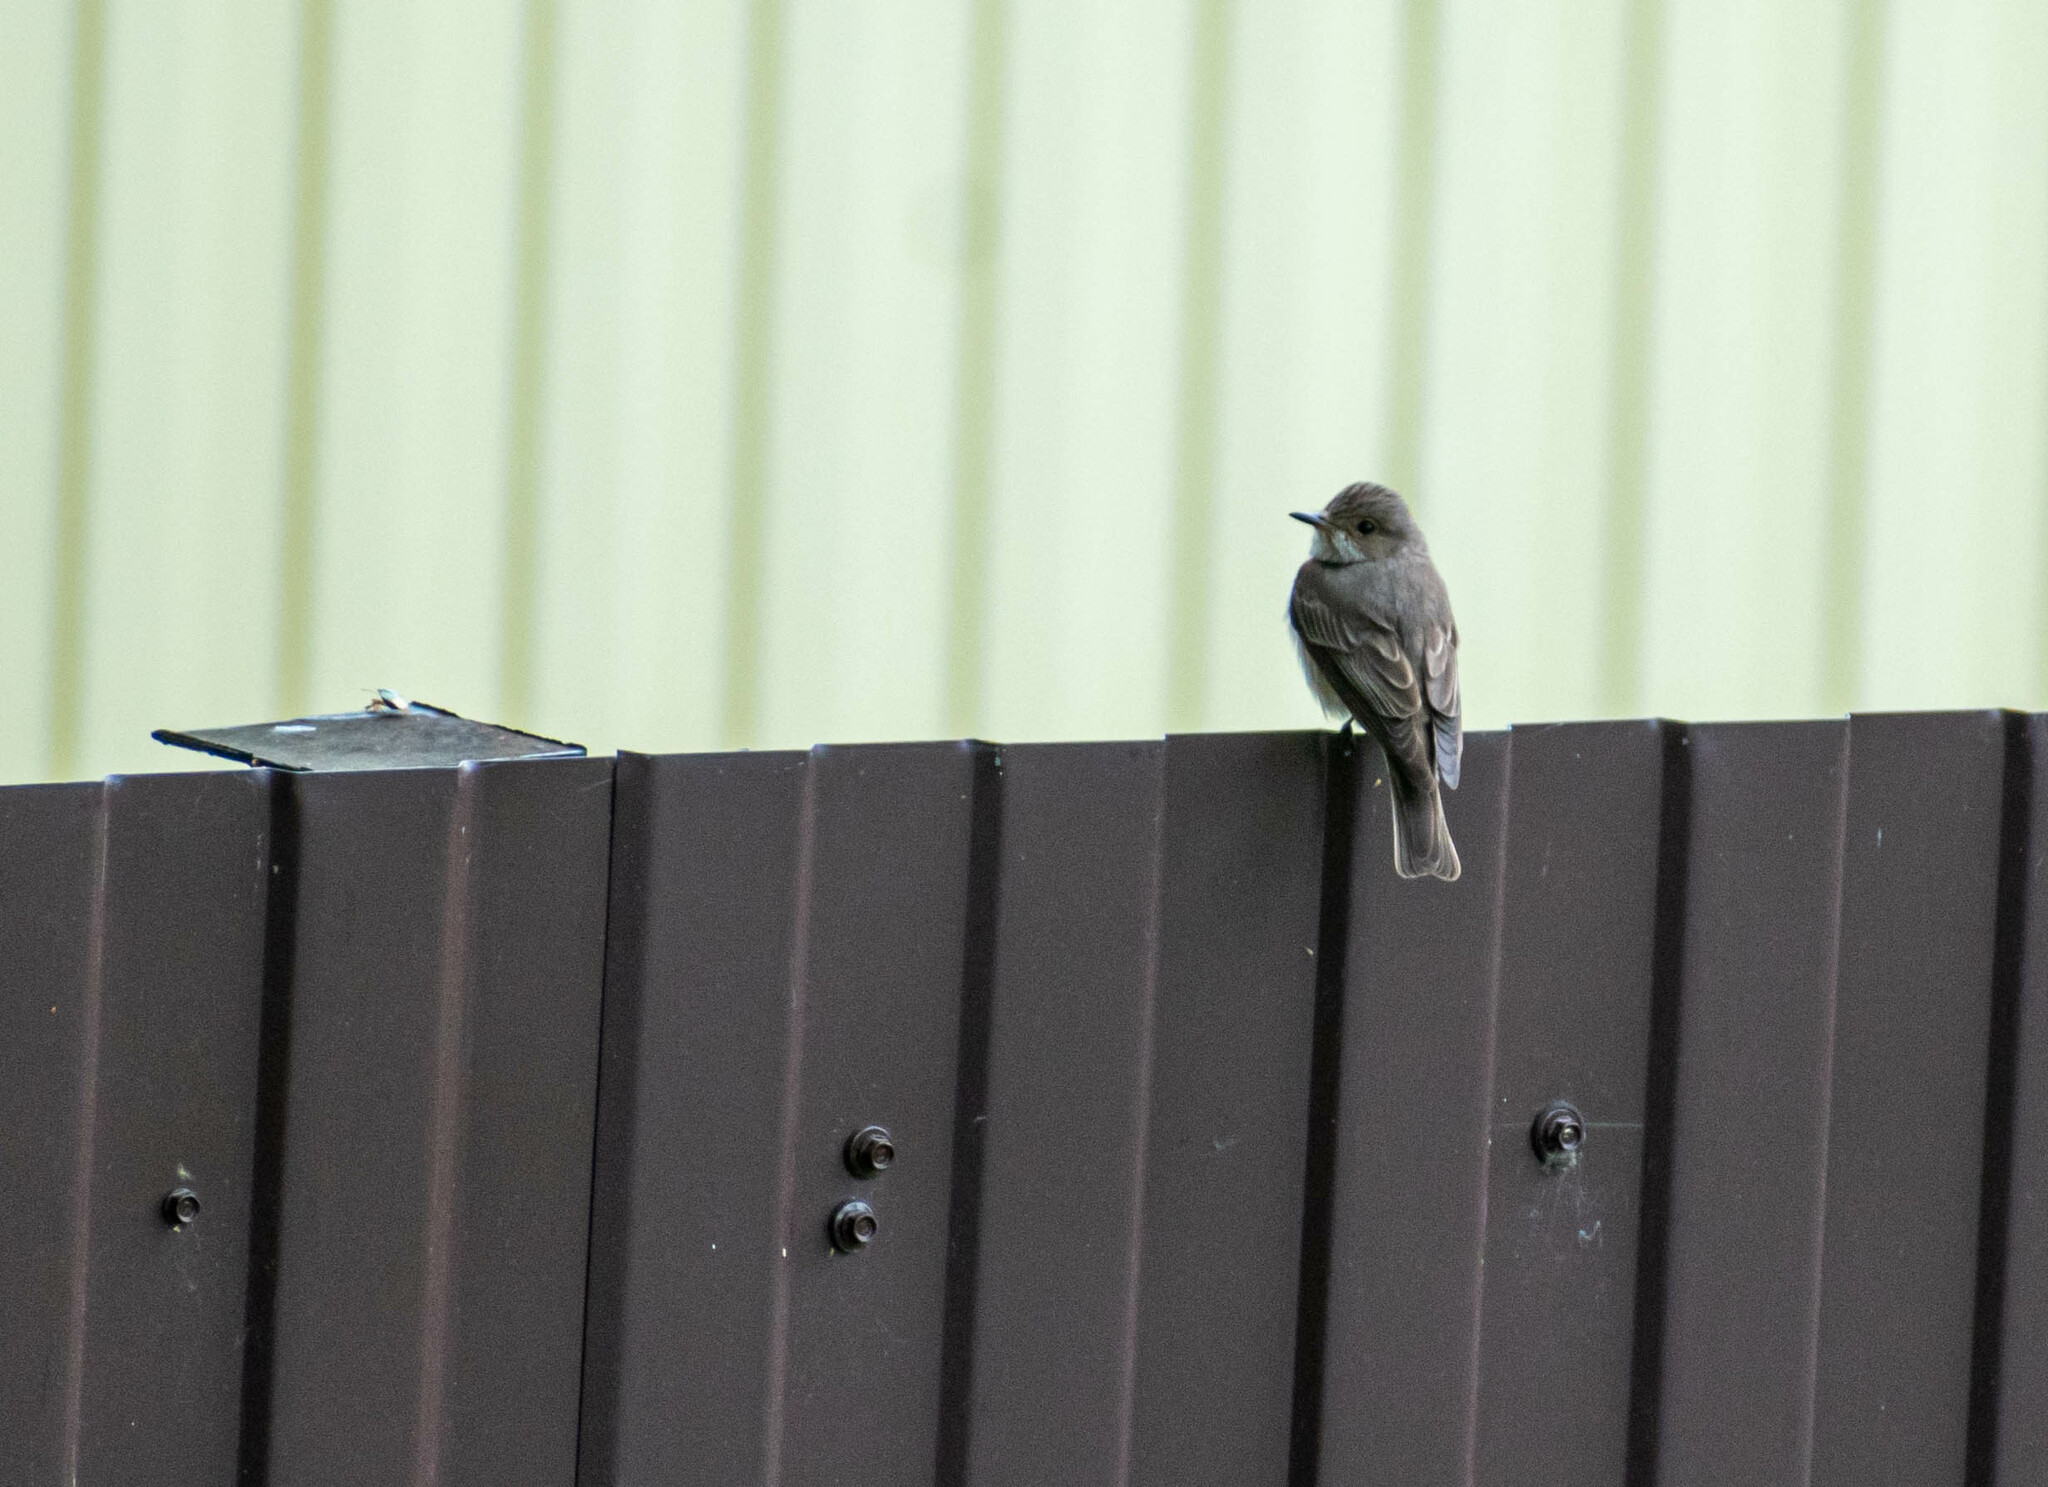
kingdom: Animalia
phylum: Chordata
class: Aves
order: Passeriformes
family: Muscicapidae
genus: Muscicapa
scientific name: Muscicapa striata
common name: Spotted flycatcher
